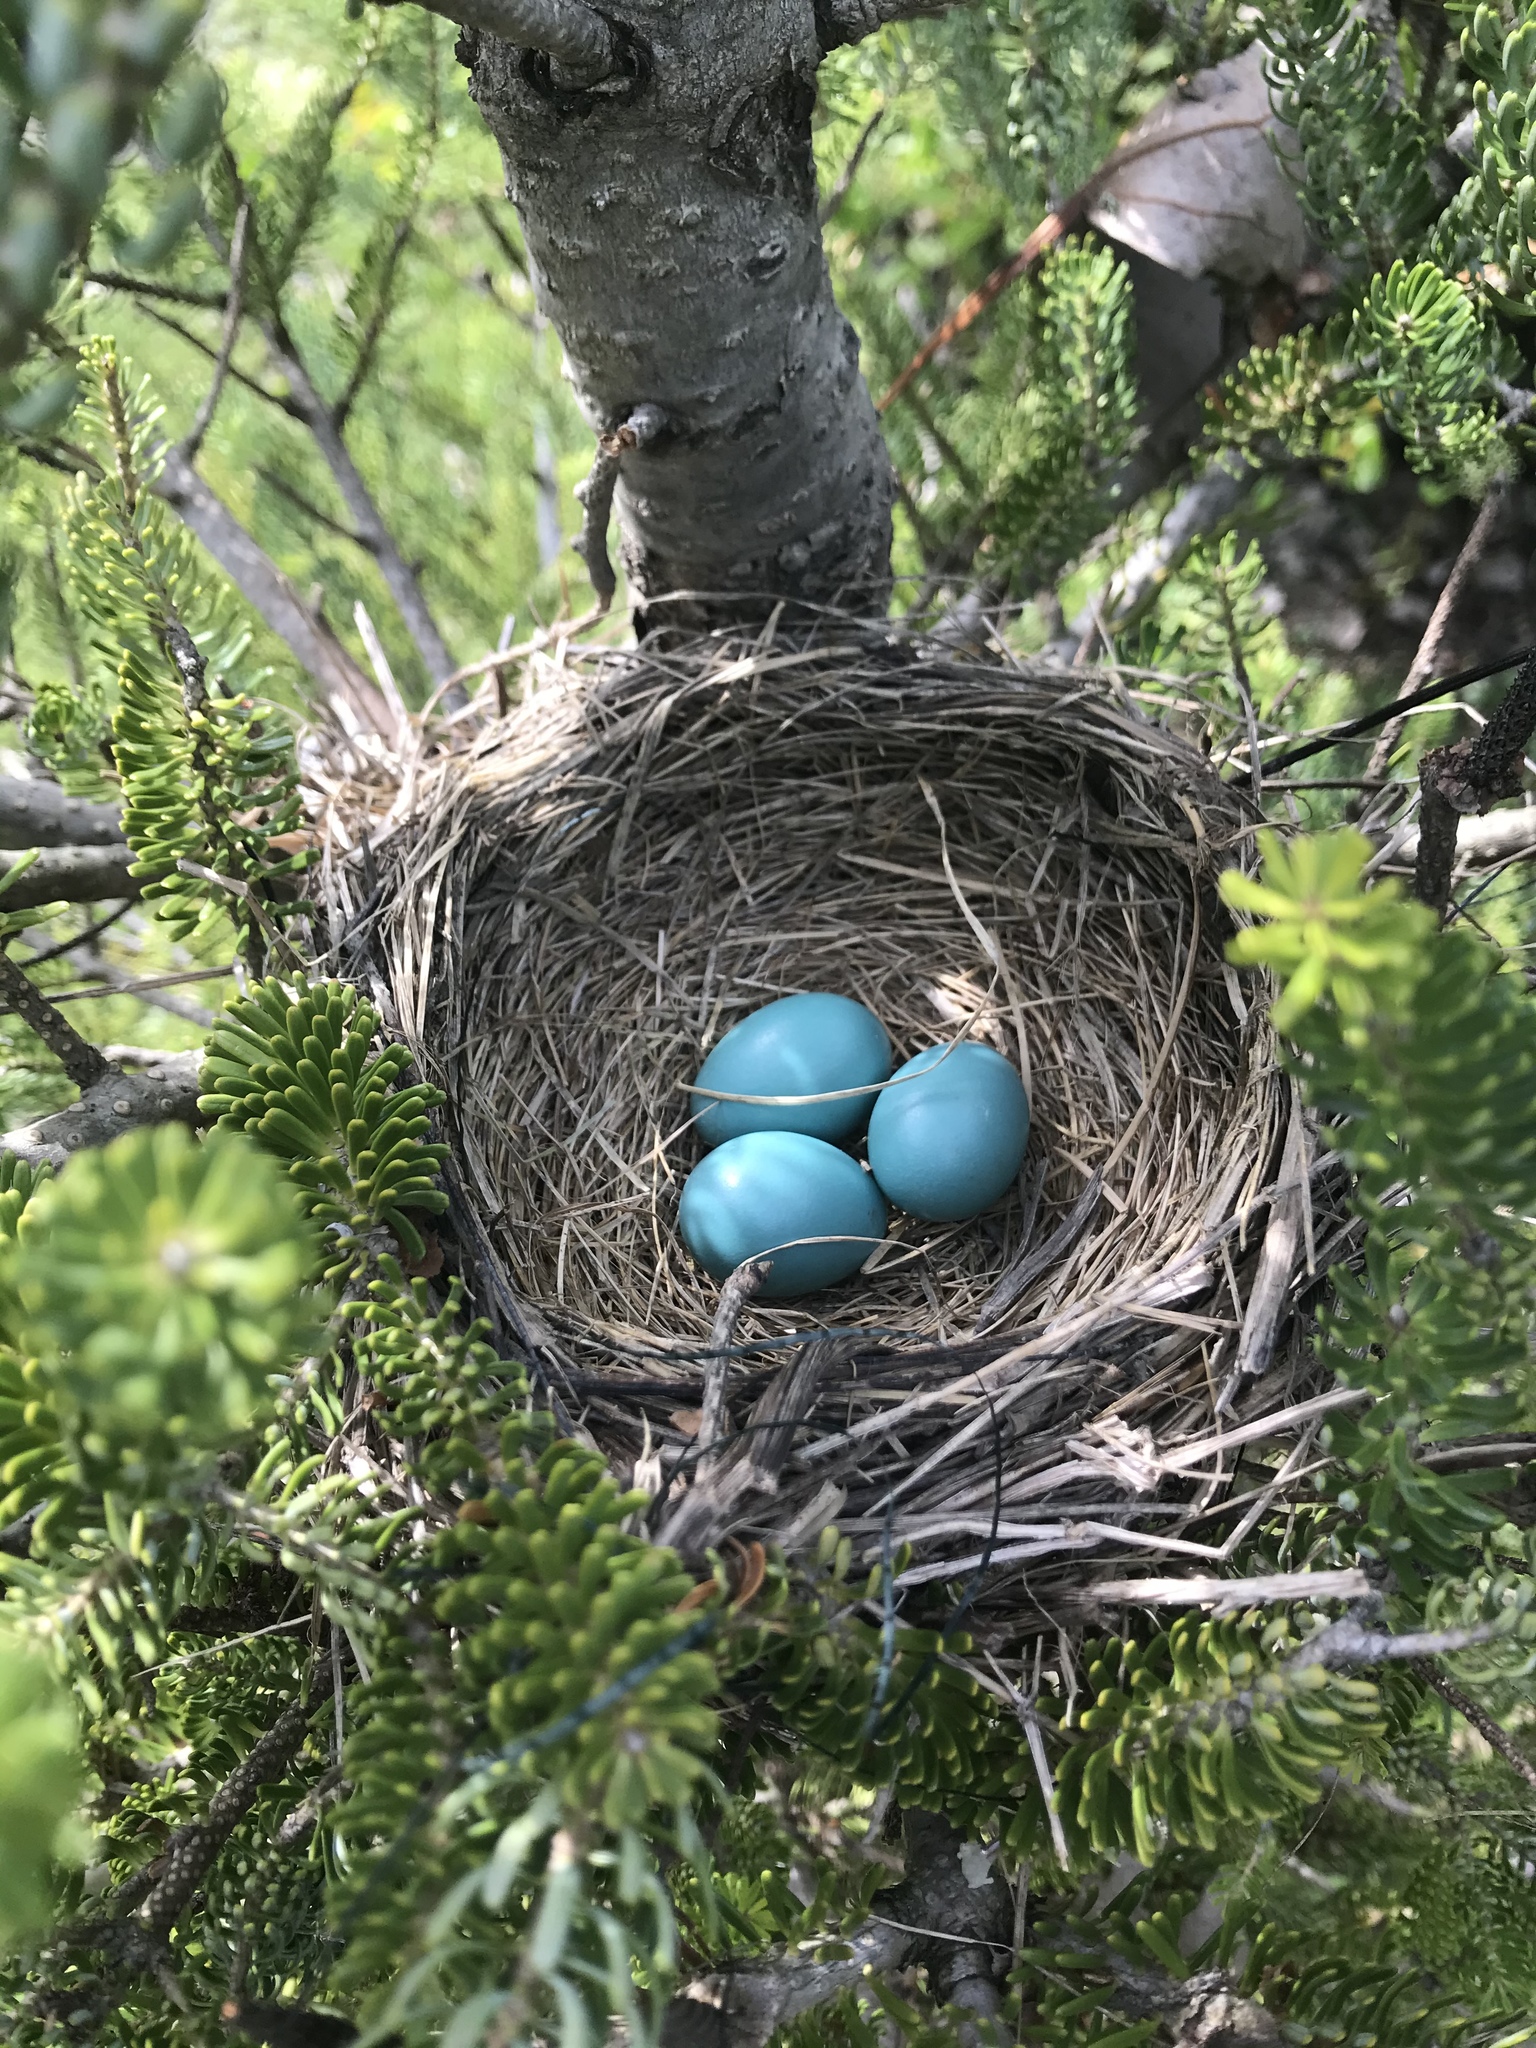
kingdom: Animalia
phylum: Chordata
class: Aves
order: Passeriformes
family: Turdidae
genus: Turdus
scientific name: Turdus migratorius
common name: American robin
